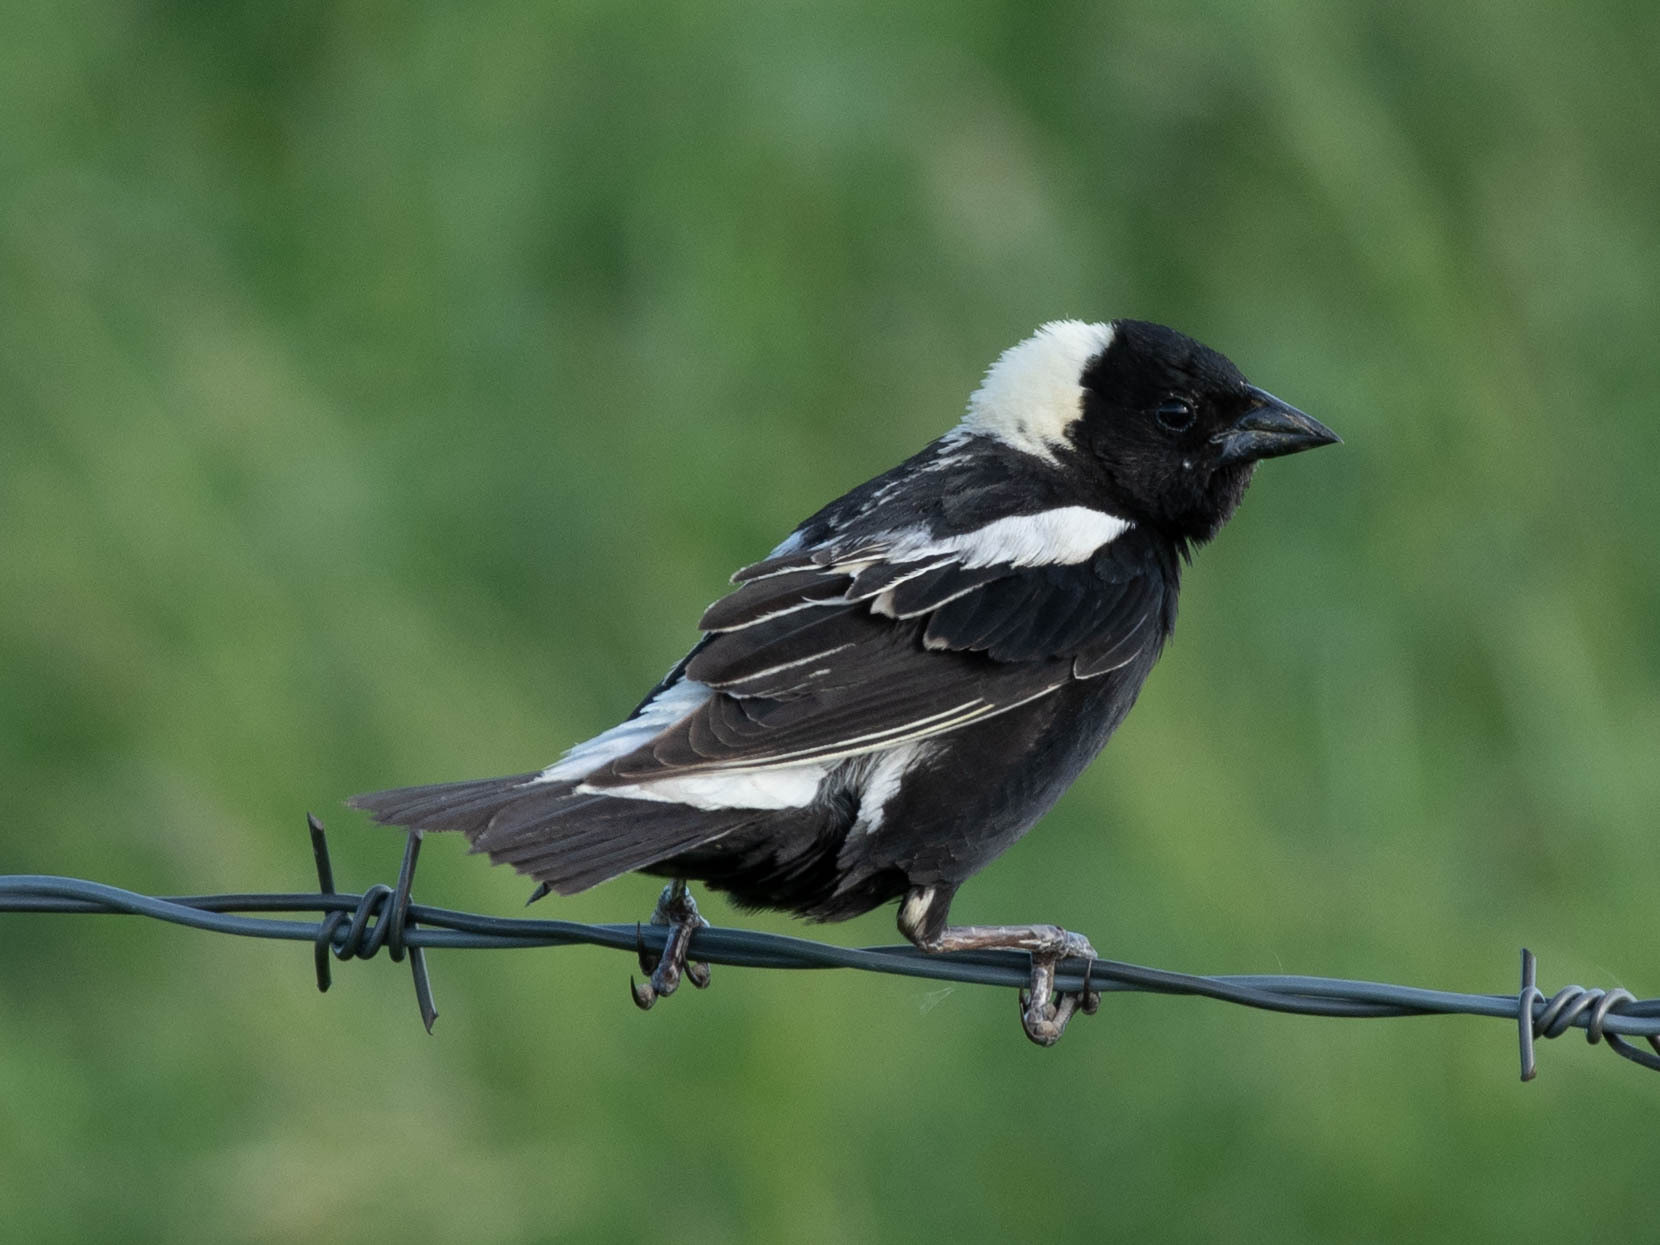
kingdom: Animalia
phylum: Chordata
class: Aves
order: Passeriformes
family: Icteridae
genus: Dolichonyx
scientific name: Dolichonyx oryzivorus
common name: Bobolink
